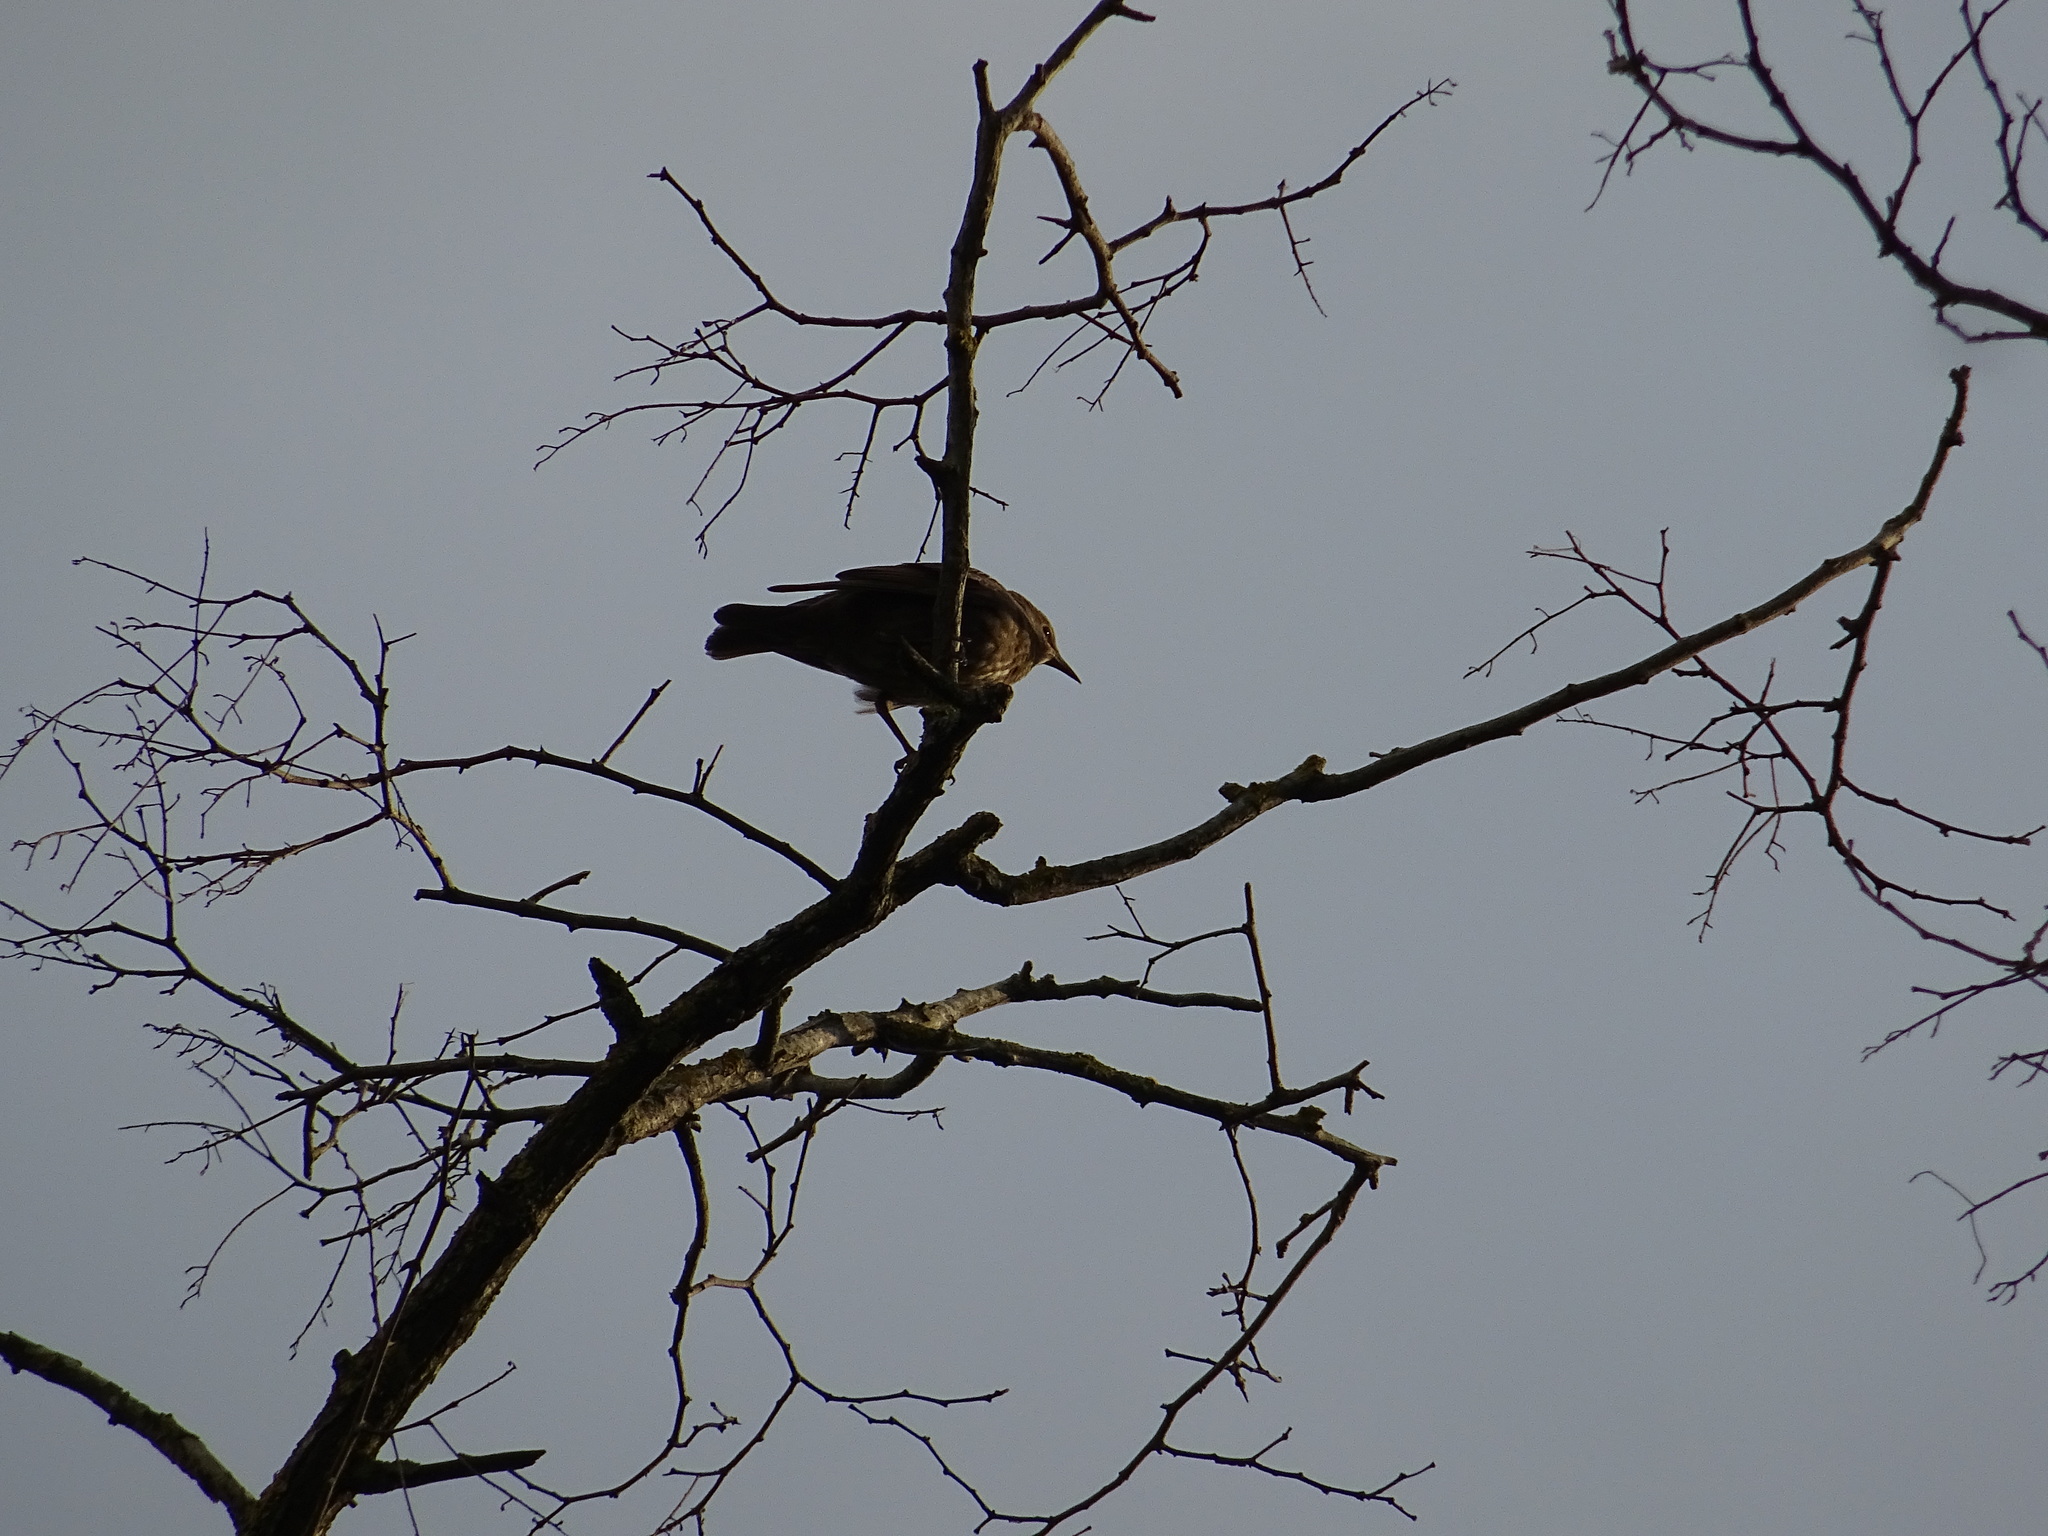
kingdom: Animalia
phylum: Chordata
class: Aves
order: Passeriformes
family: Sturnidae
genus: Sturnus
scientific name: Sturnus vulgaris
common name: Common starling
